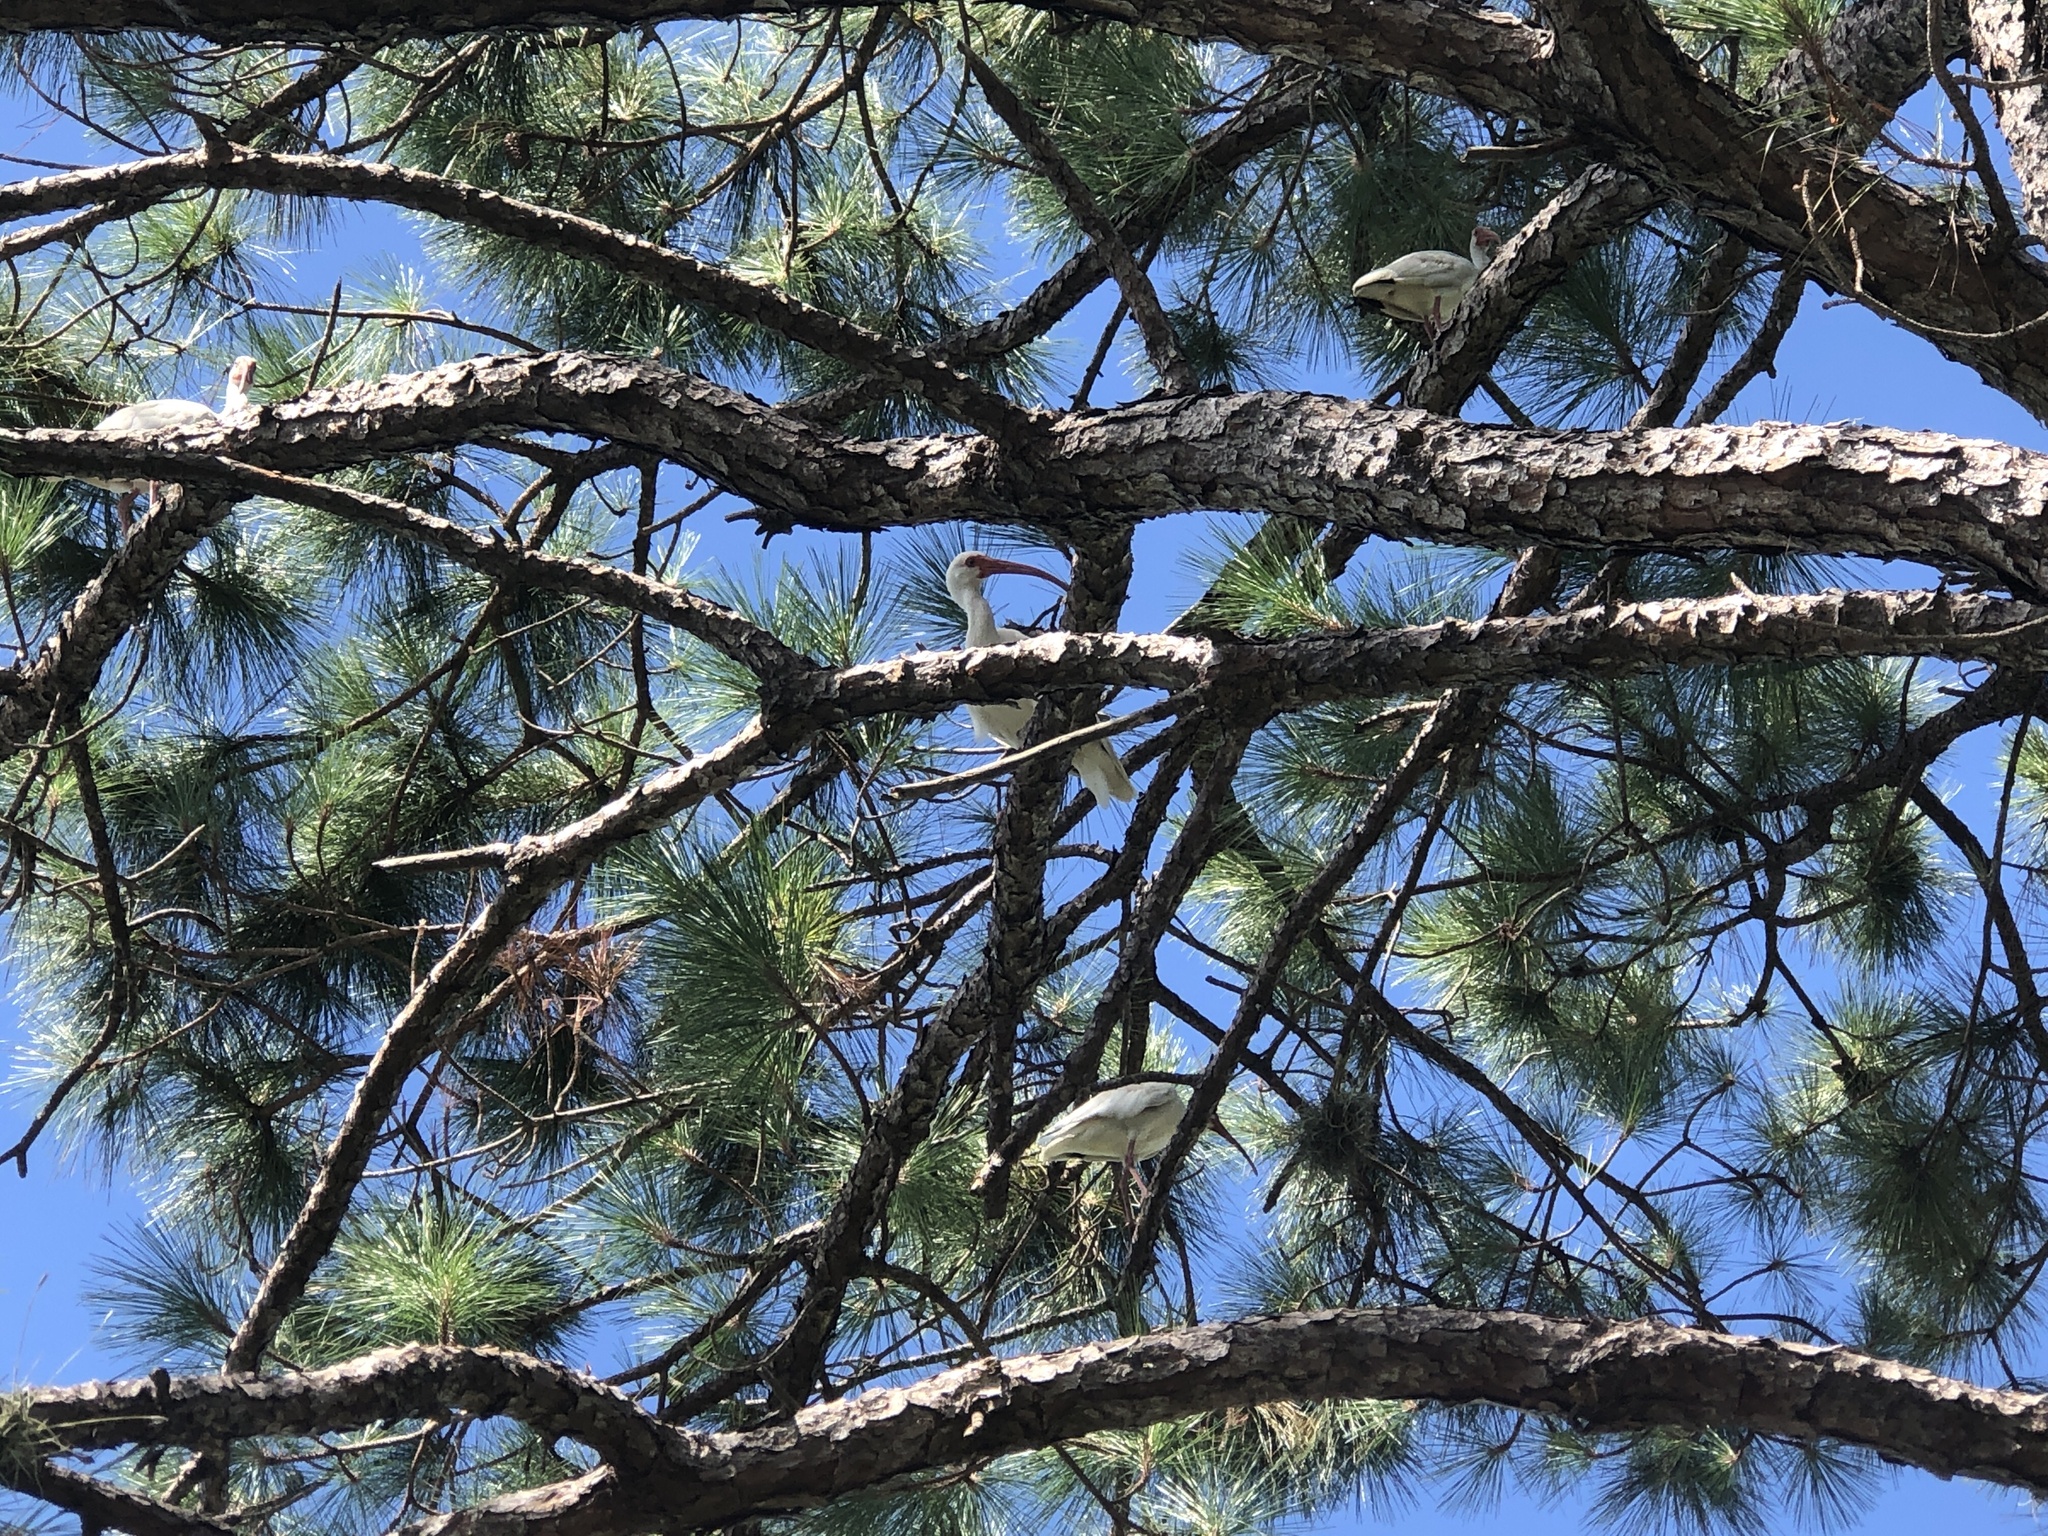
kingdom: Animalia
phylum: Chordata
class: Aves
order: Pelecaniformes
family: Threskiornithidae
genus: Eudocimus
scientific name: Eudocimus albus
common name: White ibis
